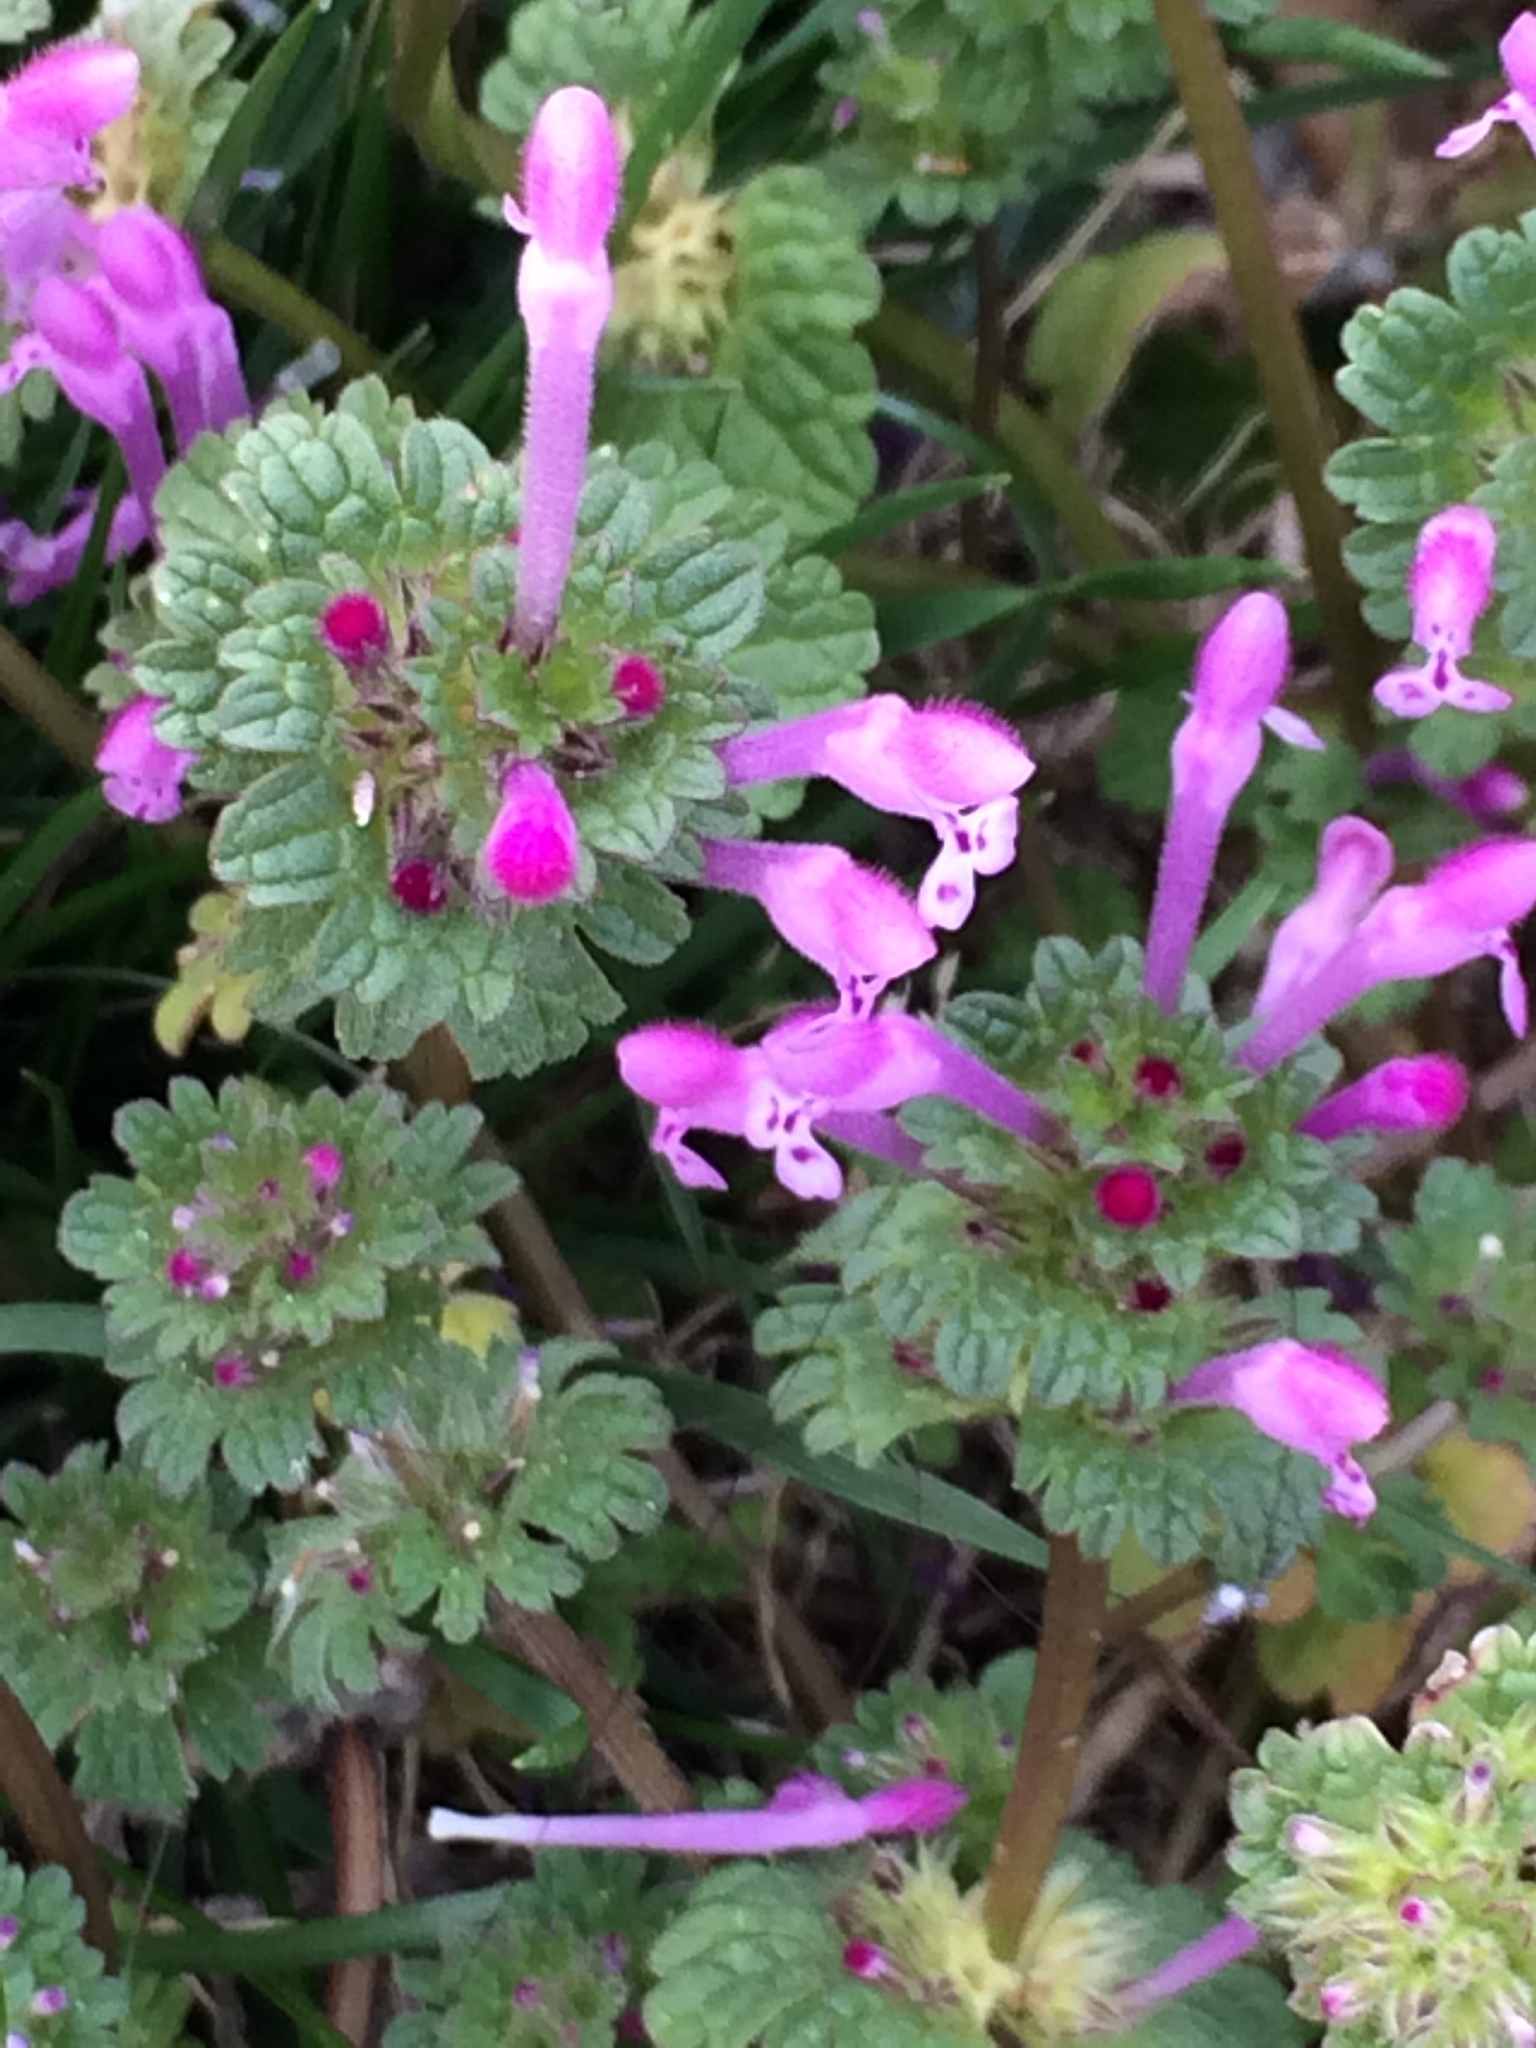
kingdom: Plantae
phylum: Tracheophyta
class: Magnoliopsida
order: Lamiales
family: Lamiaceae
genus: Lamium
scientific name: Lamium amplexicaule
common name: Henbit dead-nettle
